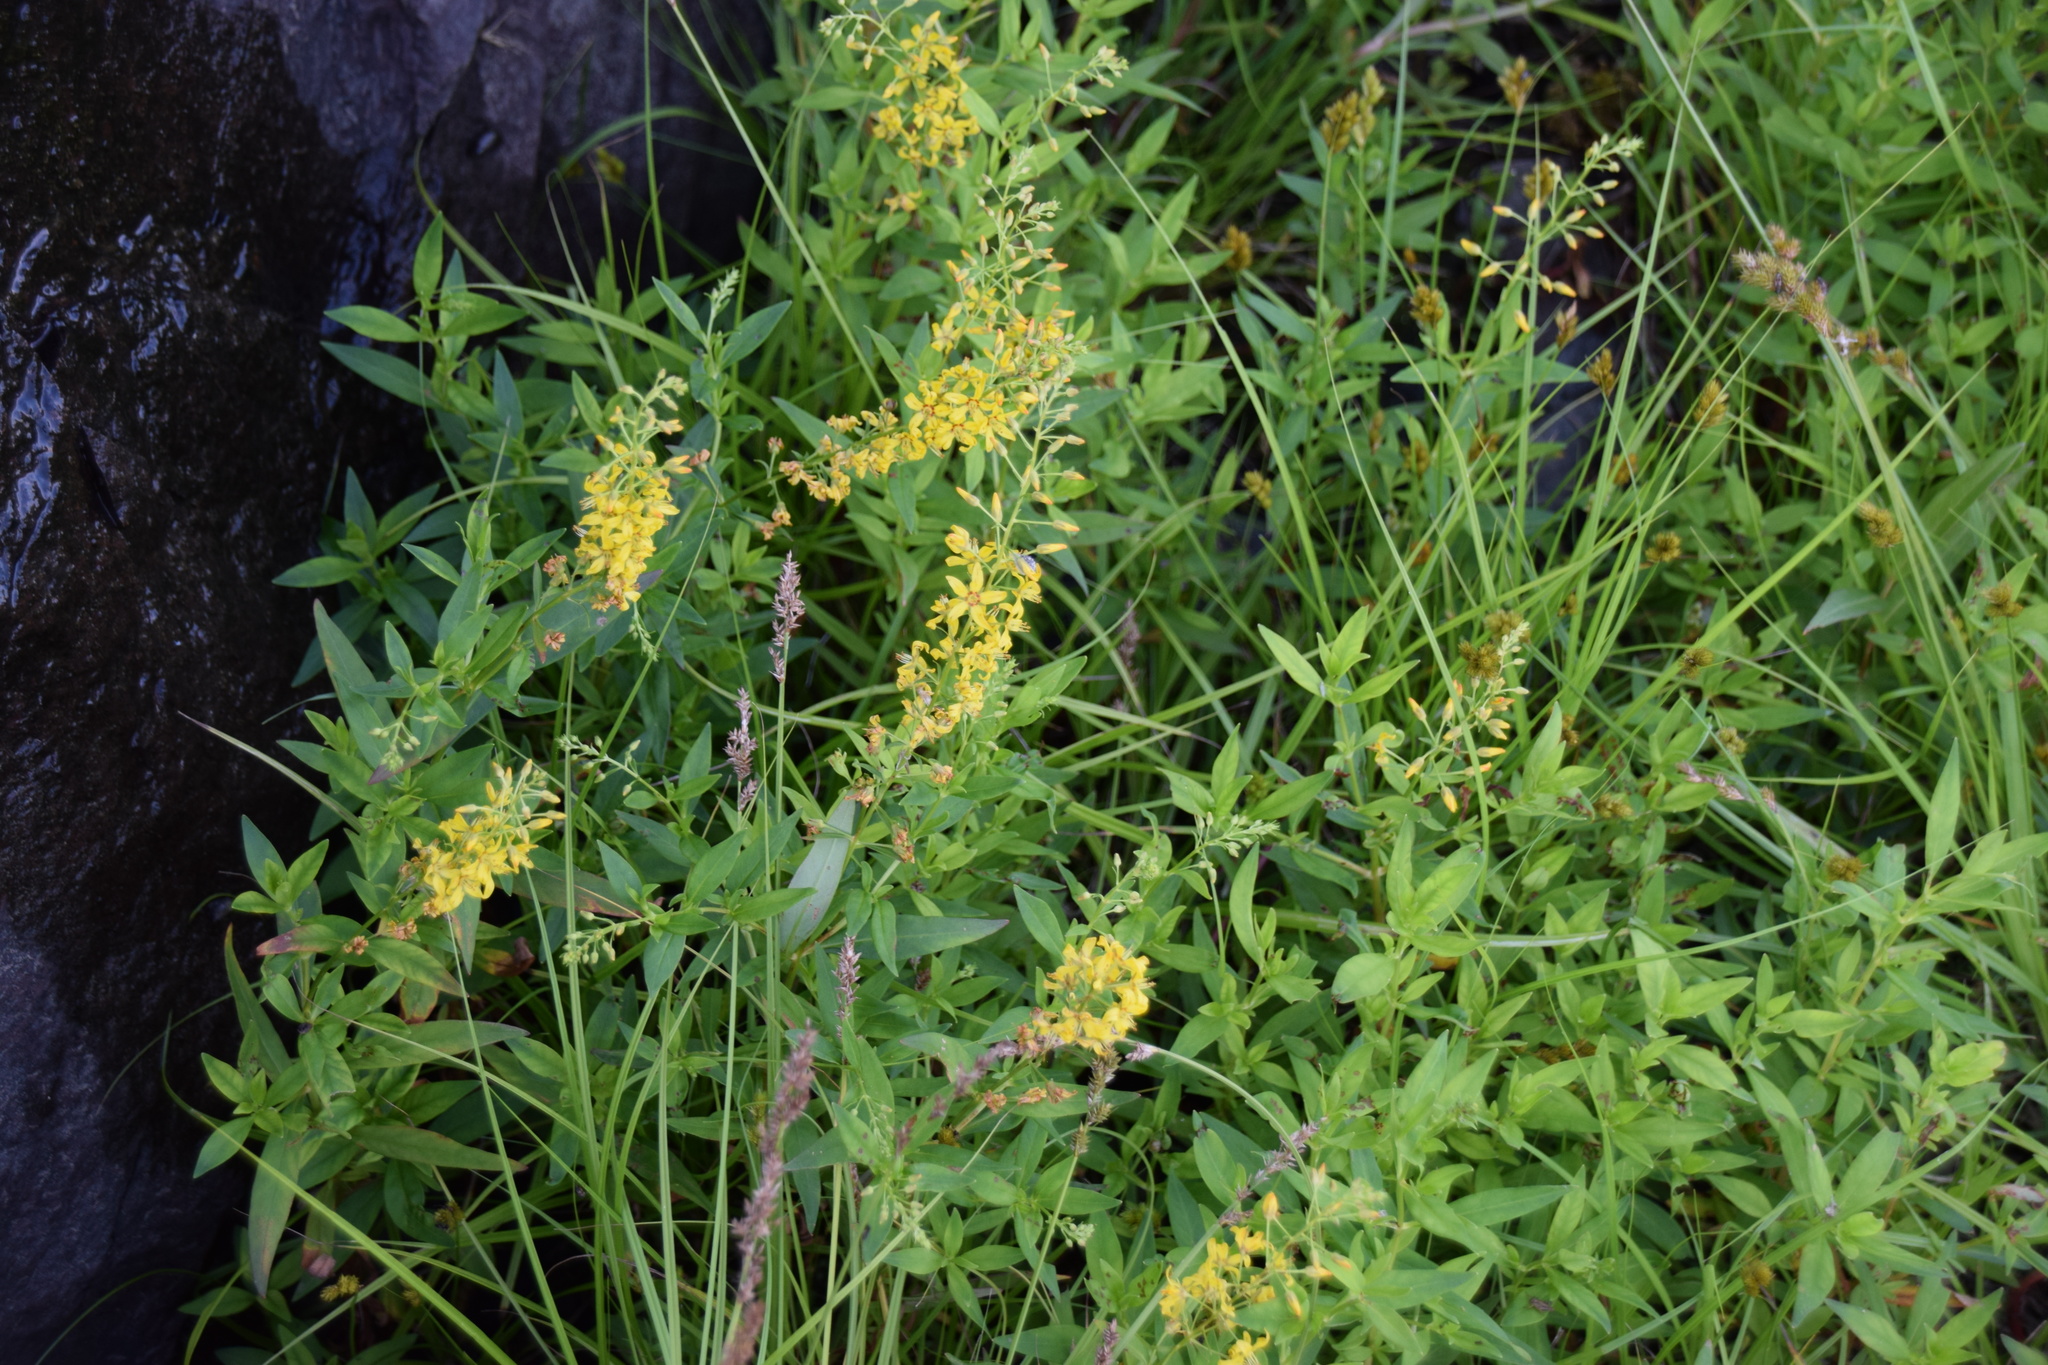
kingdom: Plantae
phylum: Tracheophyta
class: Magnoliopsida
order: Ericales
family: Primulaceae
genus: Lysimachia
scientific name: Lysimachia terrestris
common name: Lake loosestrife
